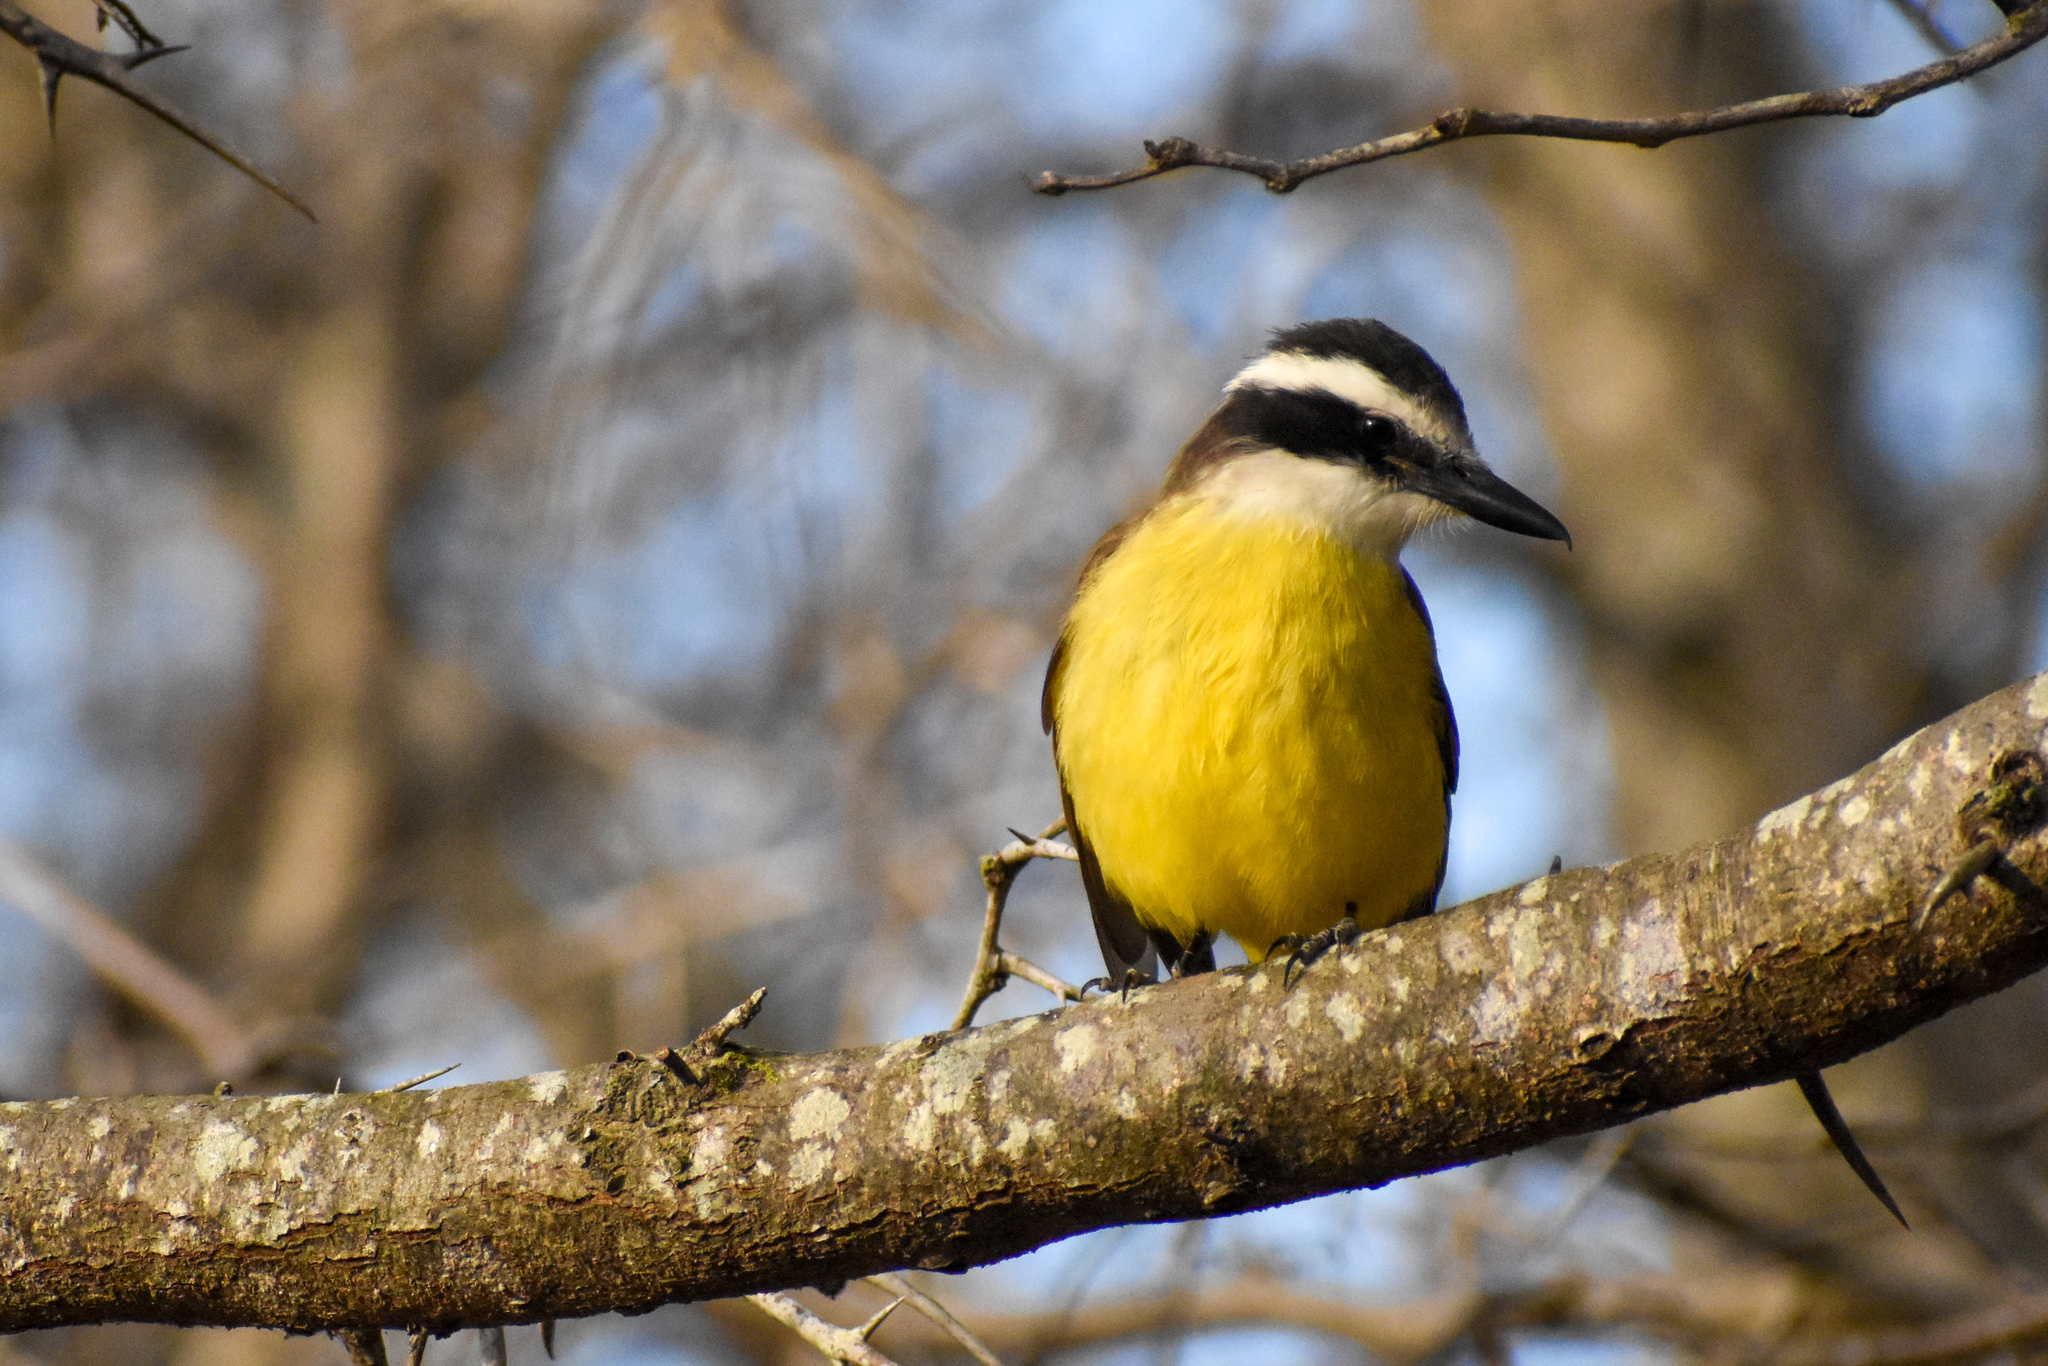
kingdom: Animalia
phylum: Chordata
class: Aves
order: Passeriformes
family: Tyrannidae
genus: Pitangus
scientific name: Pitangus sulphuratus
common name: Great kiskadee
